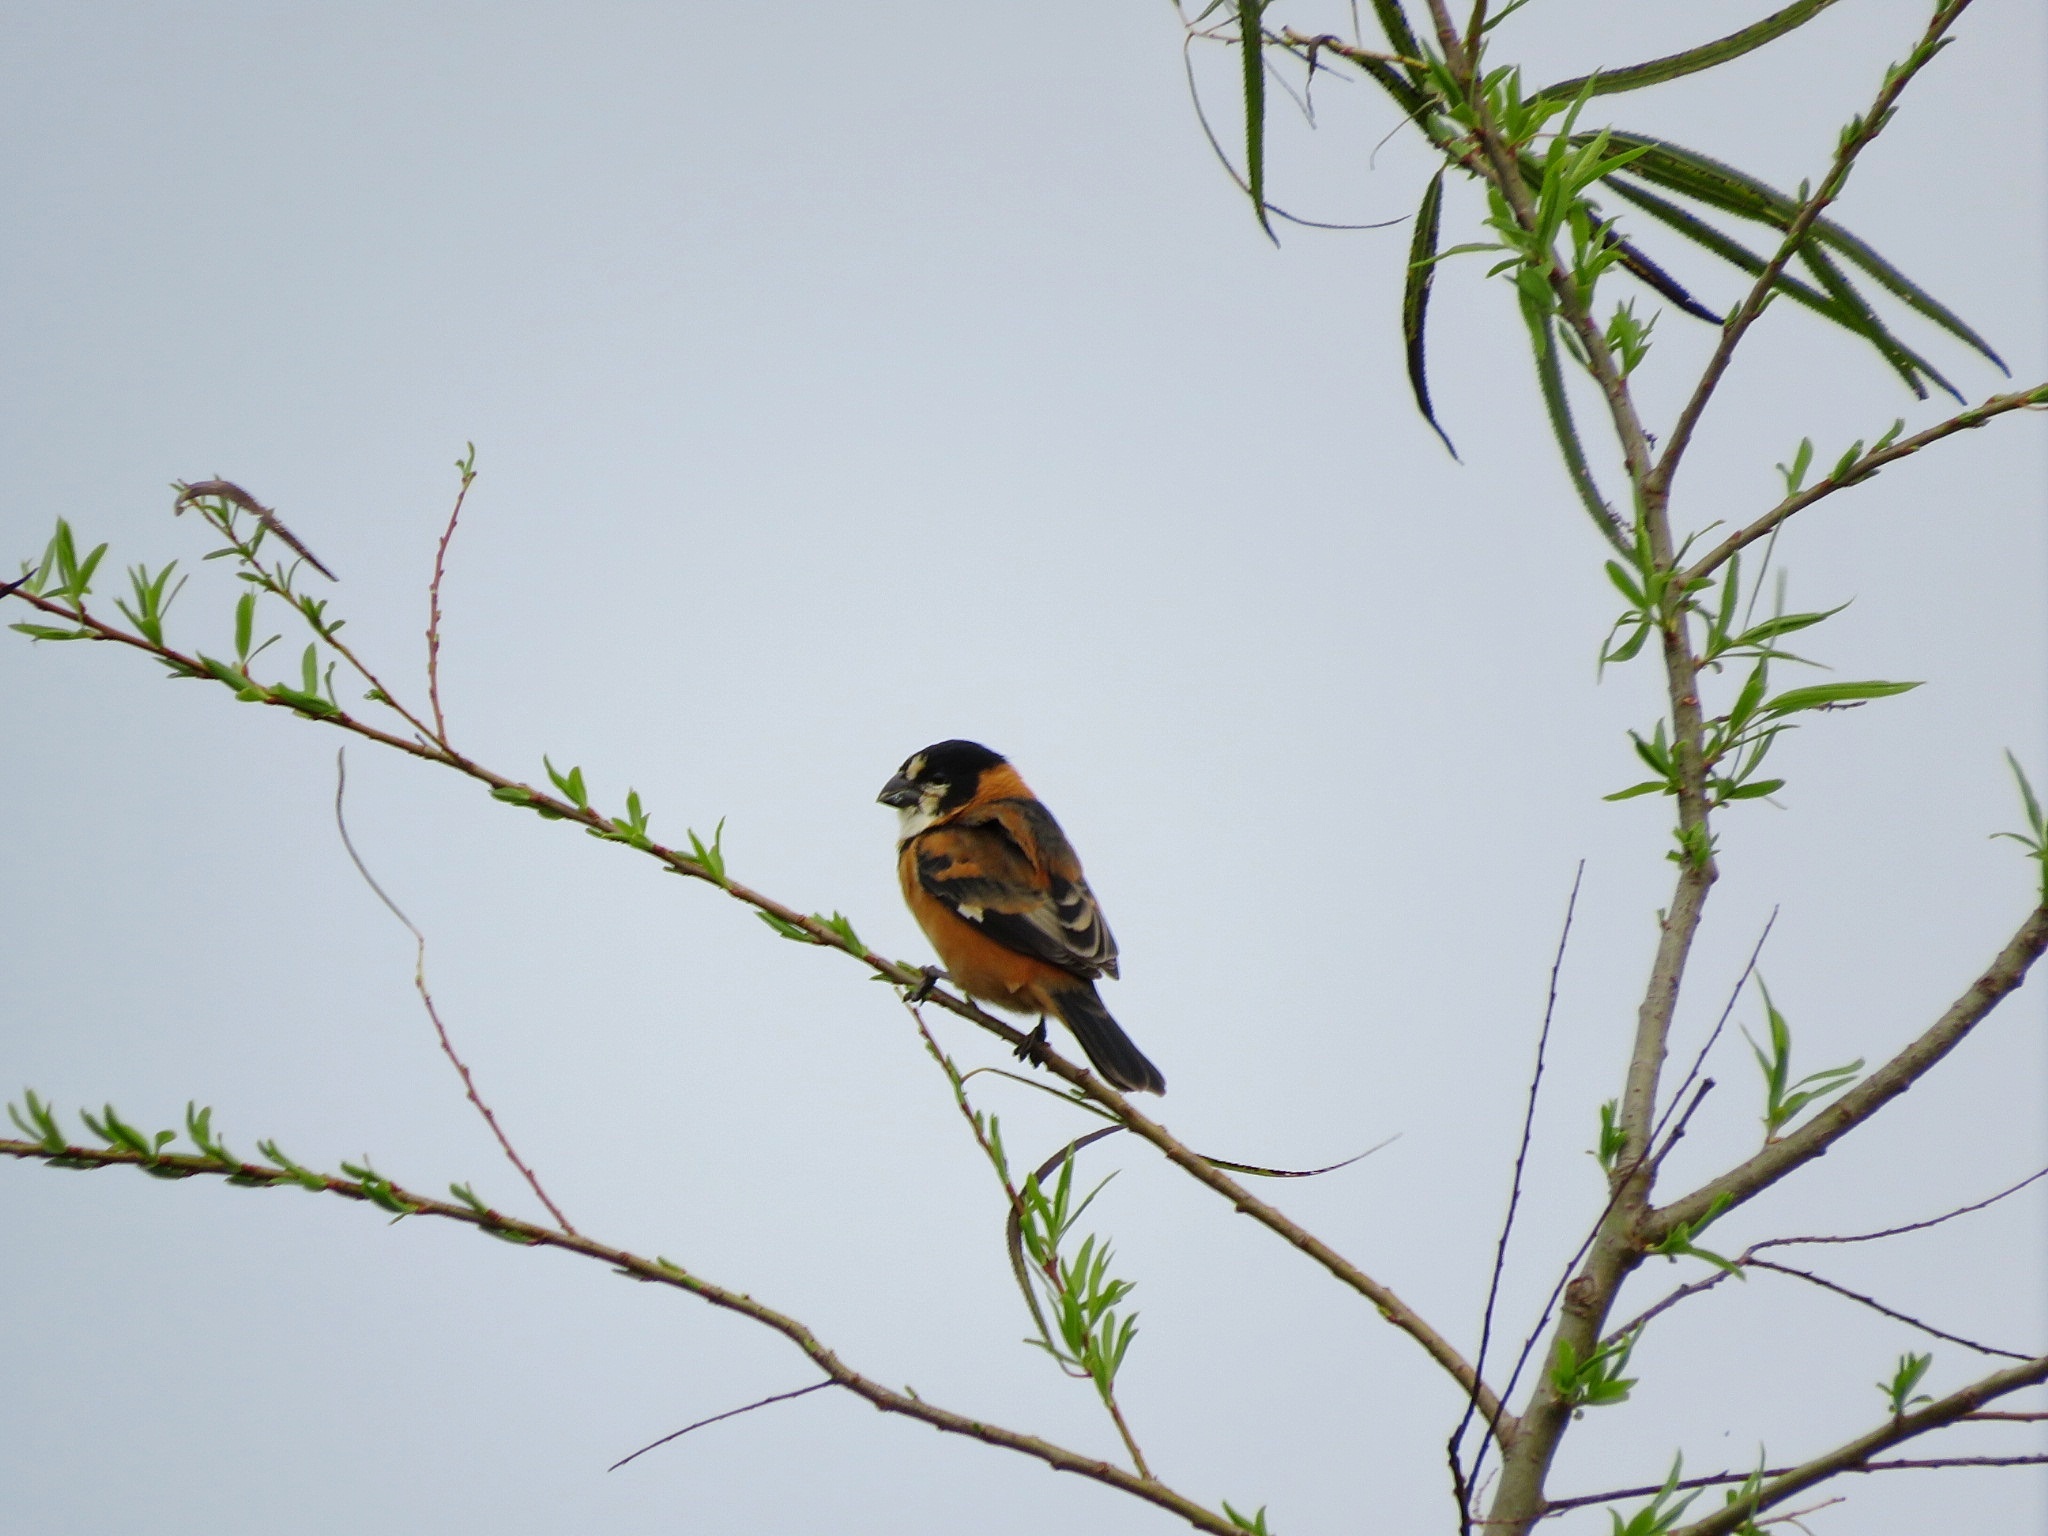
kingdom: Animalia
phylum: Chordata
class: Aves
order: Passeriformes
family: Thraupidae
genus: Sporophila
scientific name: Sporophila collaris
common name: Rusty-collared seedeater
